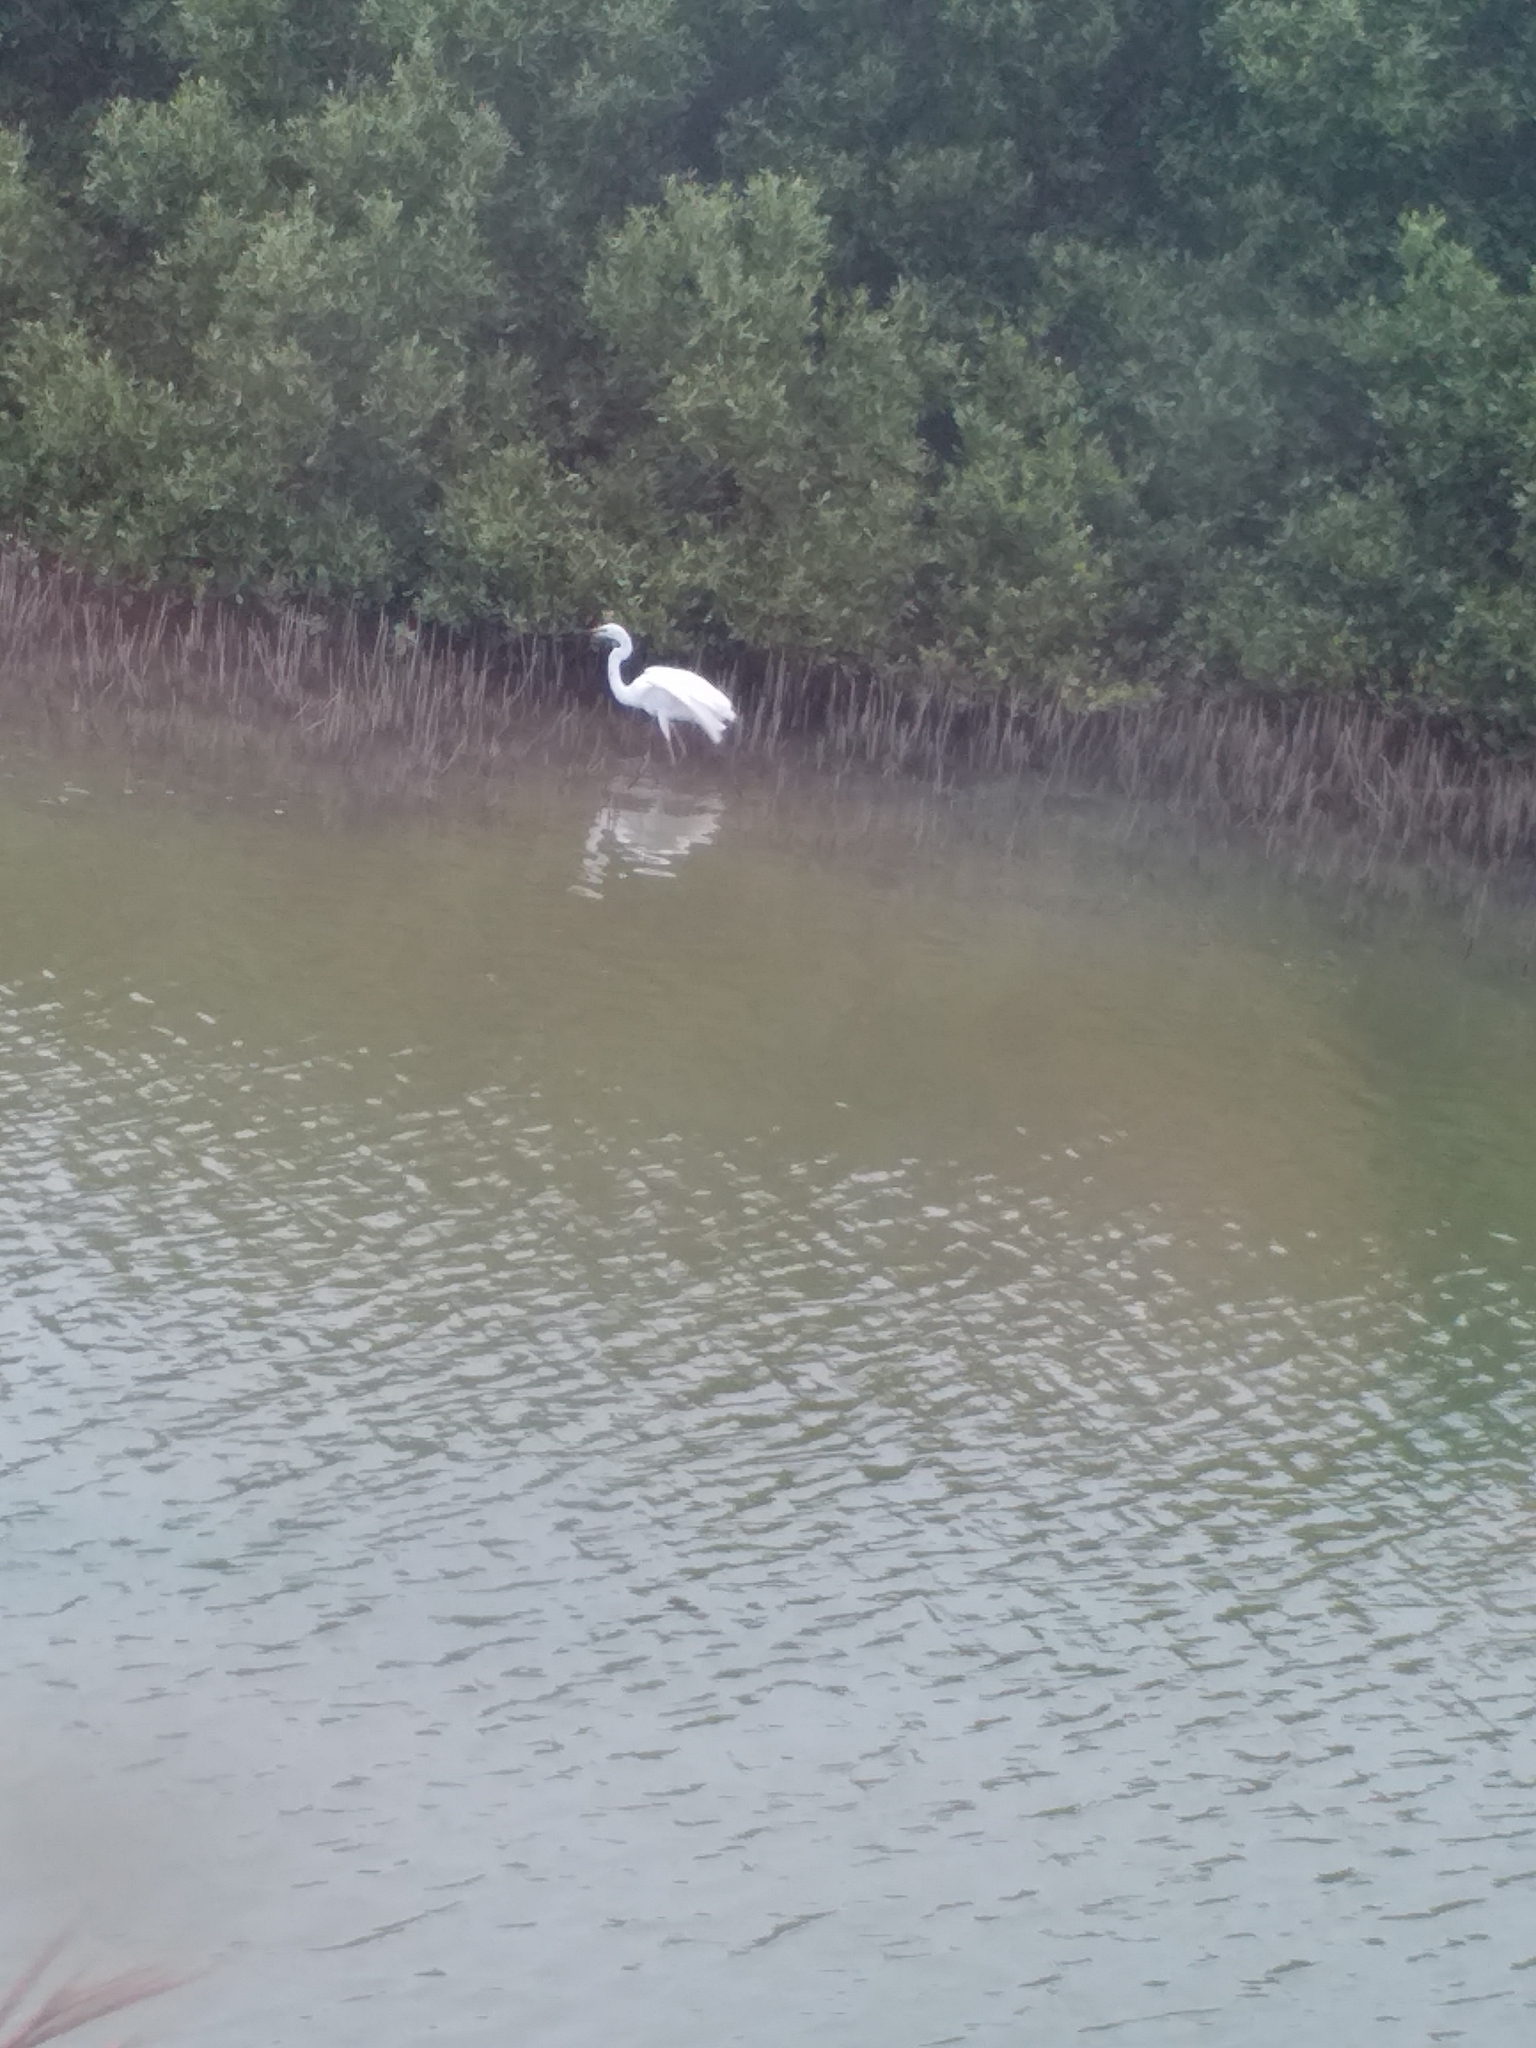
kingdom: Animalia
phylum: Chordata
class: Aves
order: Pelecaniformes
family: Ardeidae
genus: Ardea
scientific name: Ardea alba
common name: Great egret
